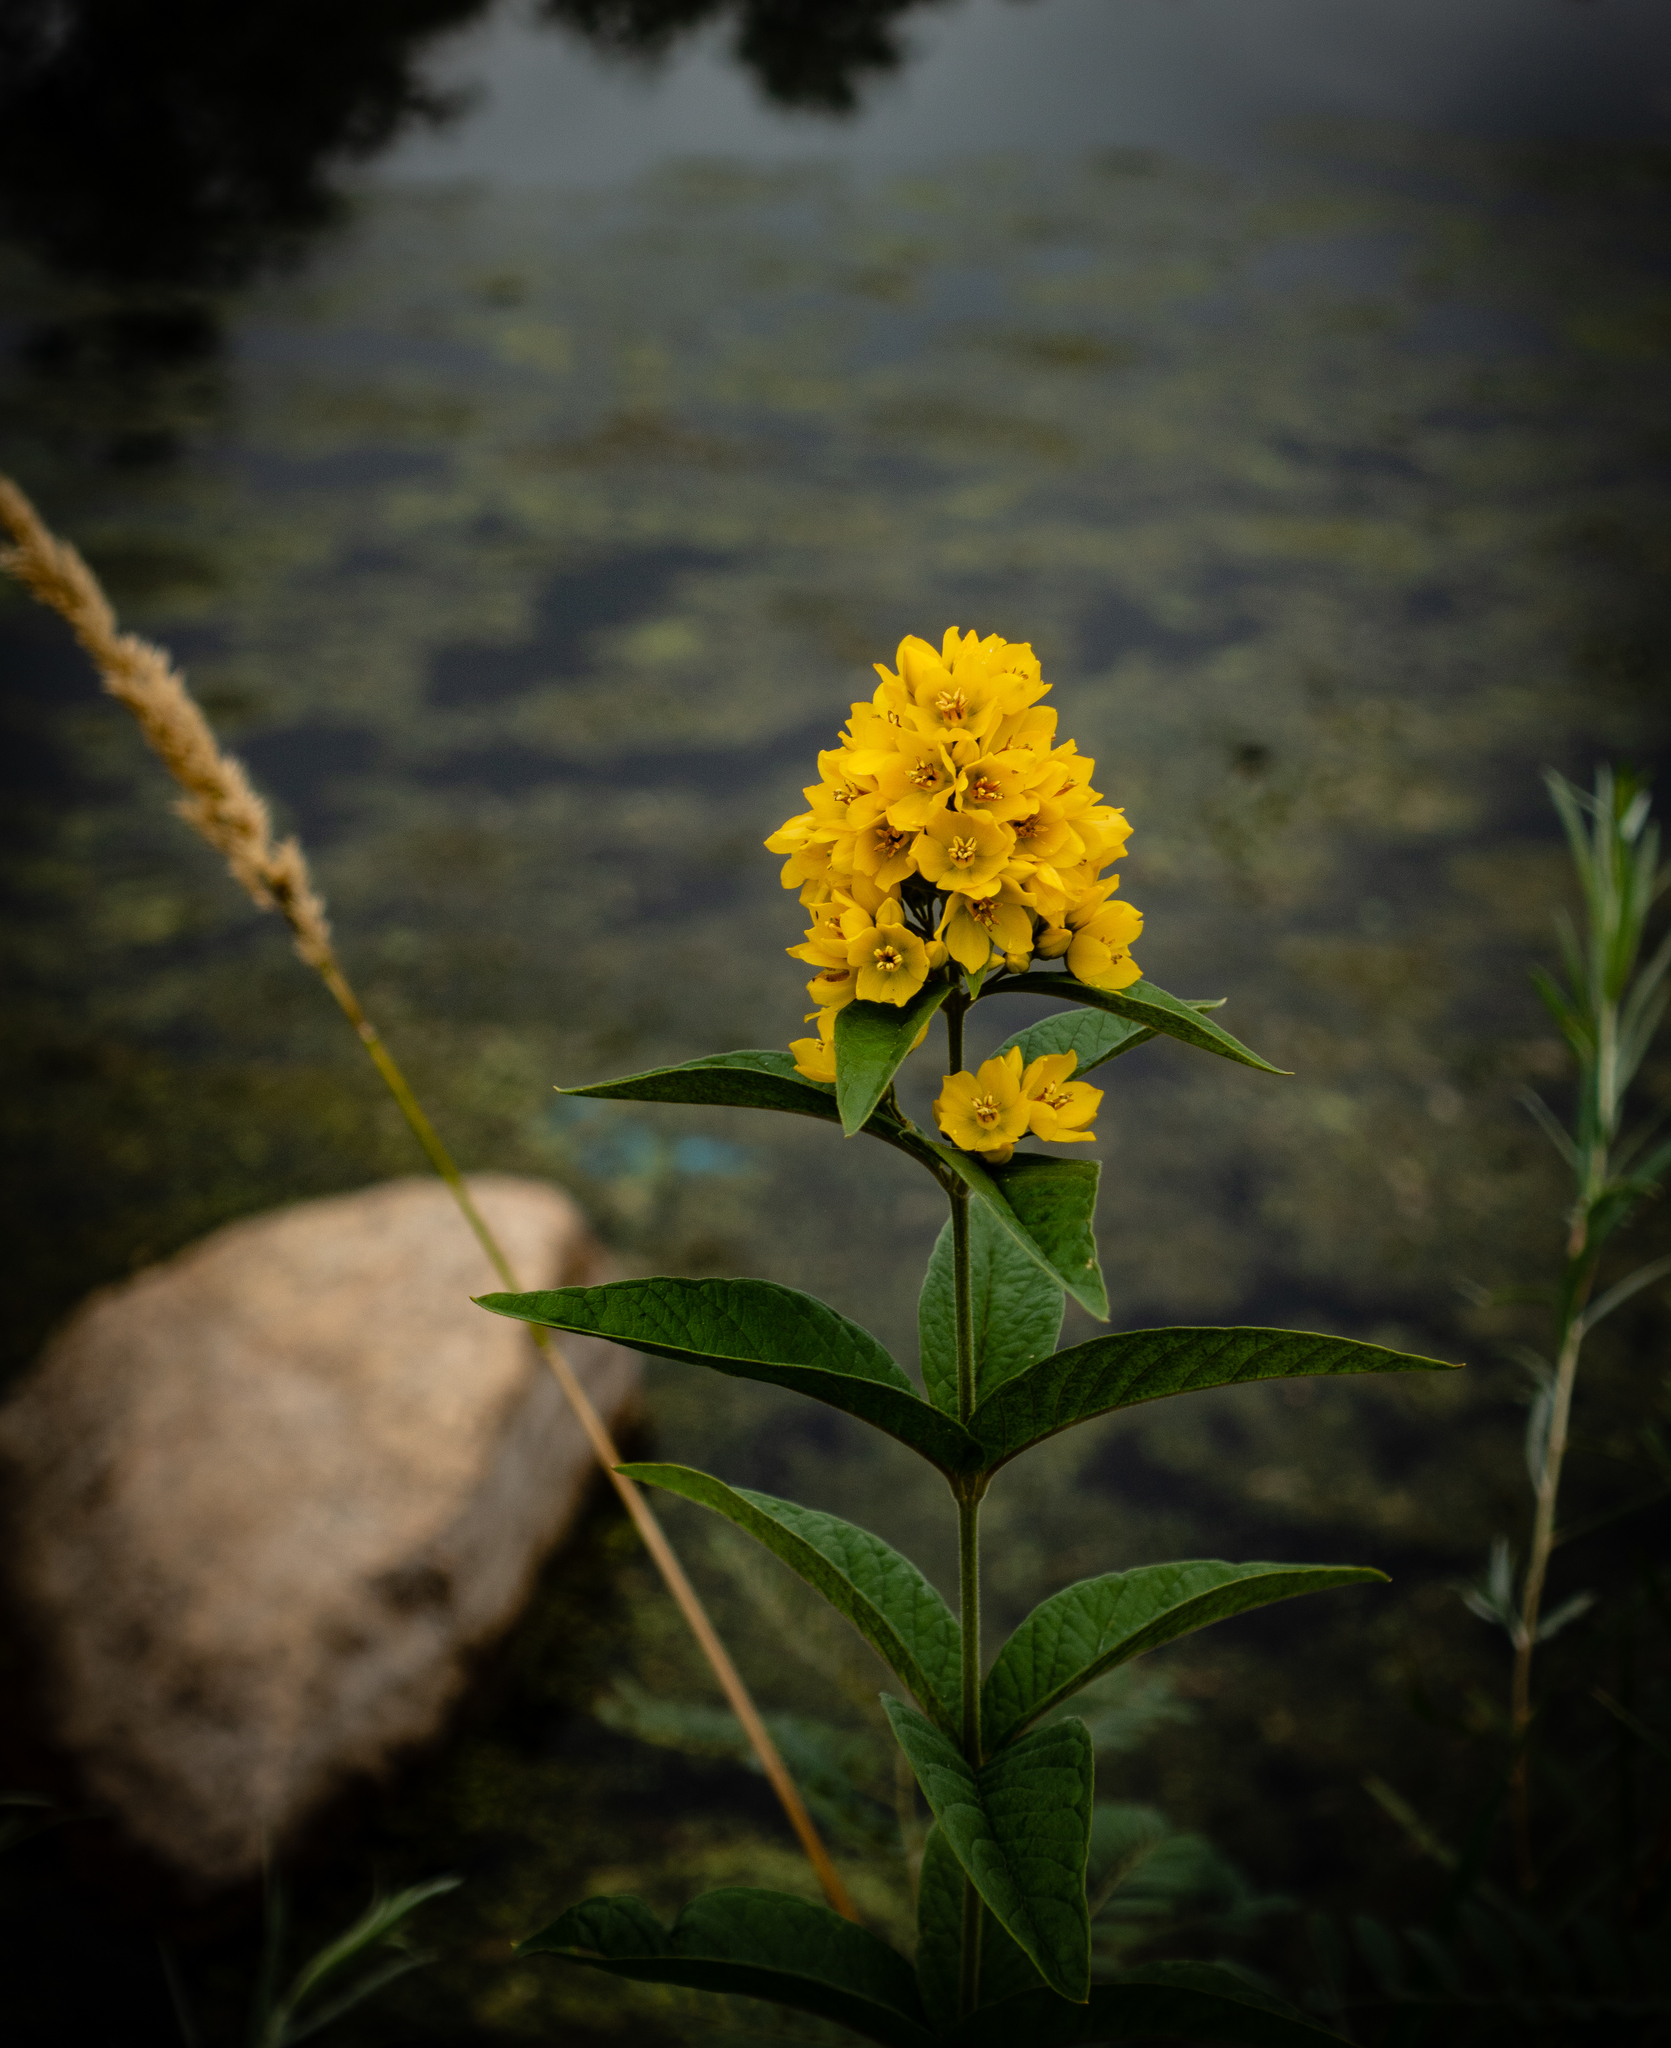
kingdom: Plantae
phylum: Tracheophyta
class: Magnoliopsida
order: Ericales
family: Primulaceae
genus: Lysimachia
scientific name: Lysimachia vulgaris
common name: Yellow loosestrife
